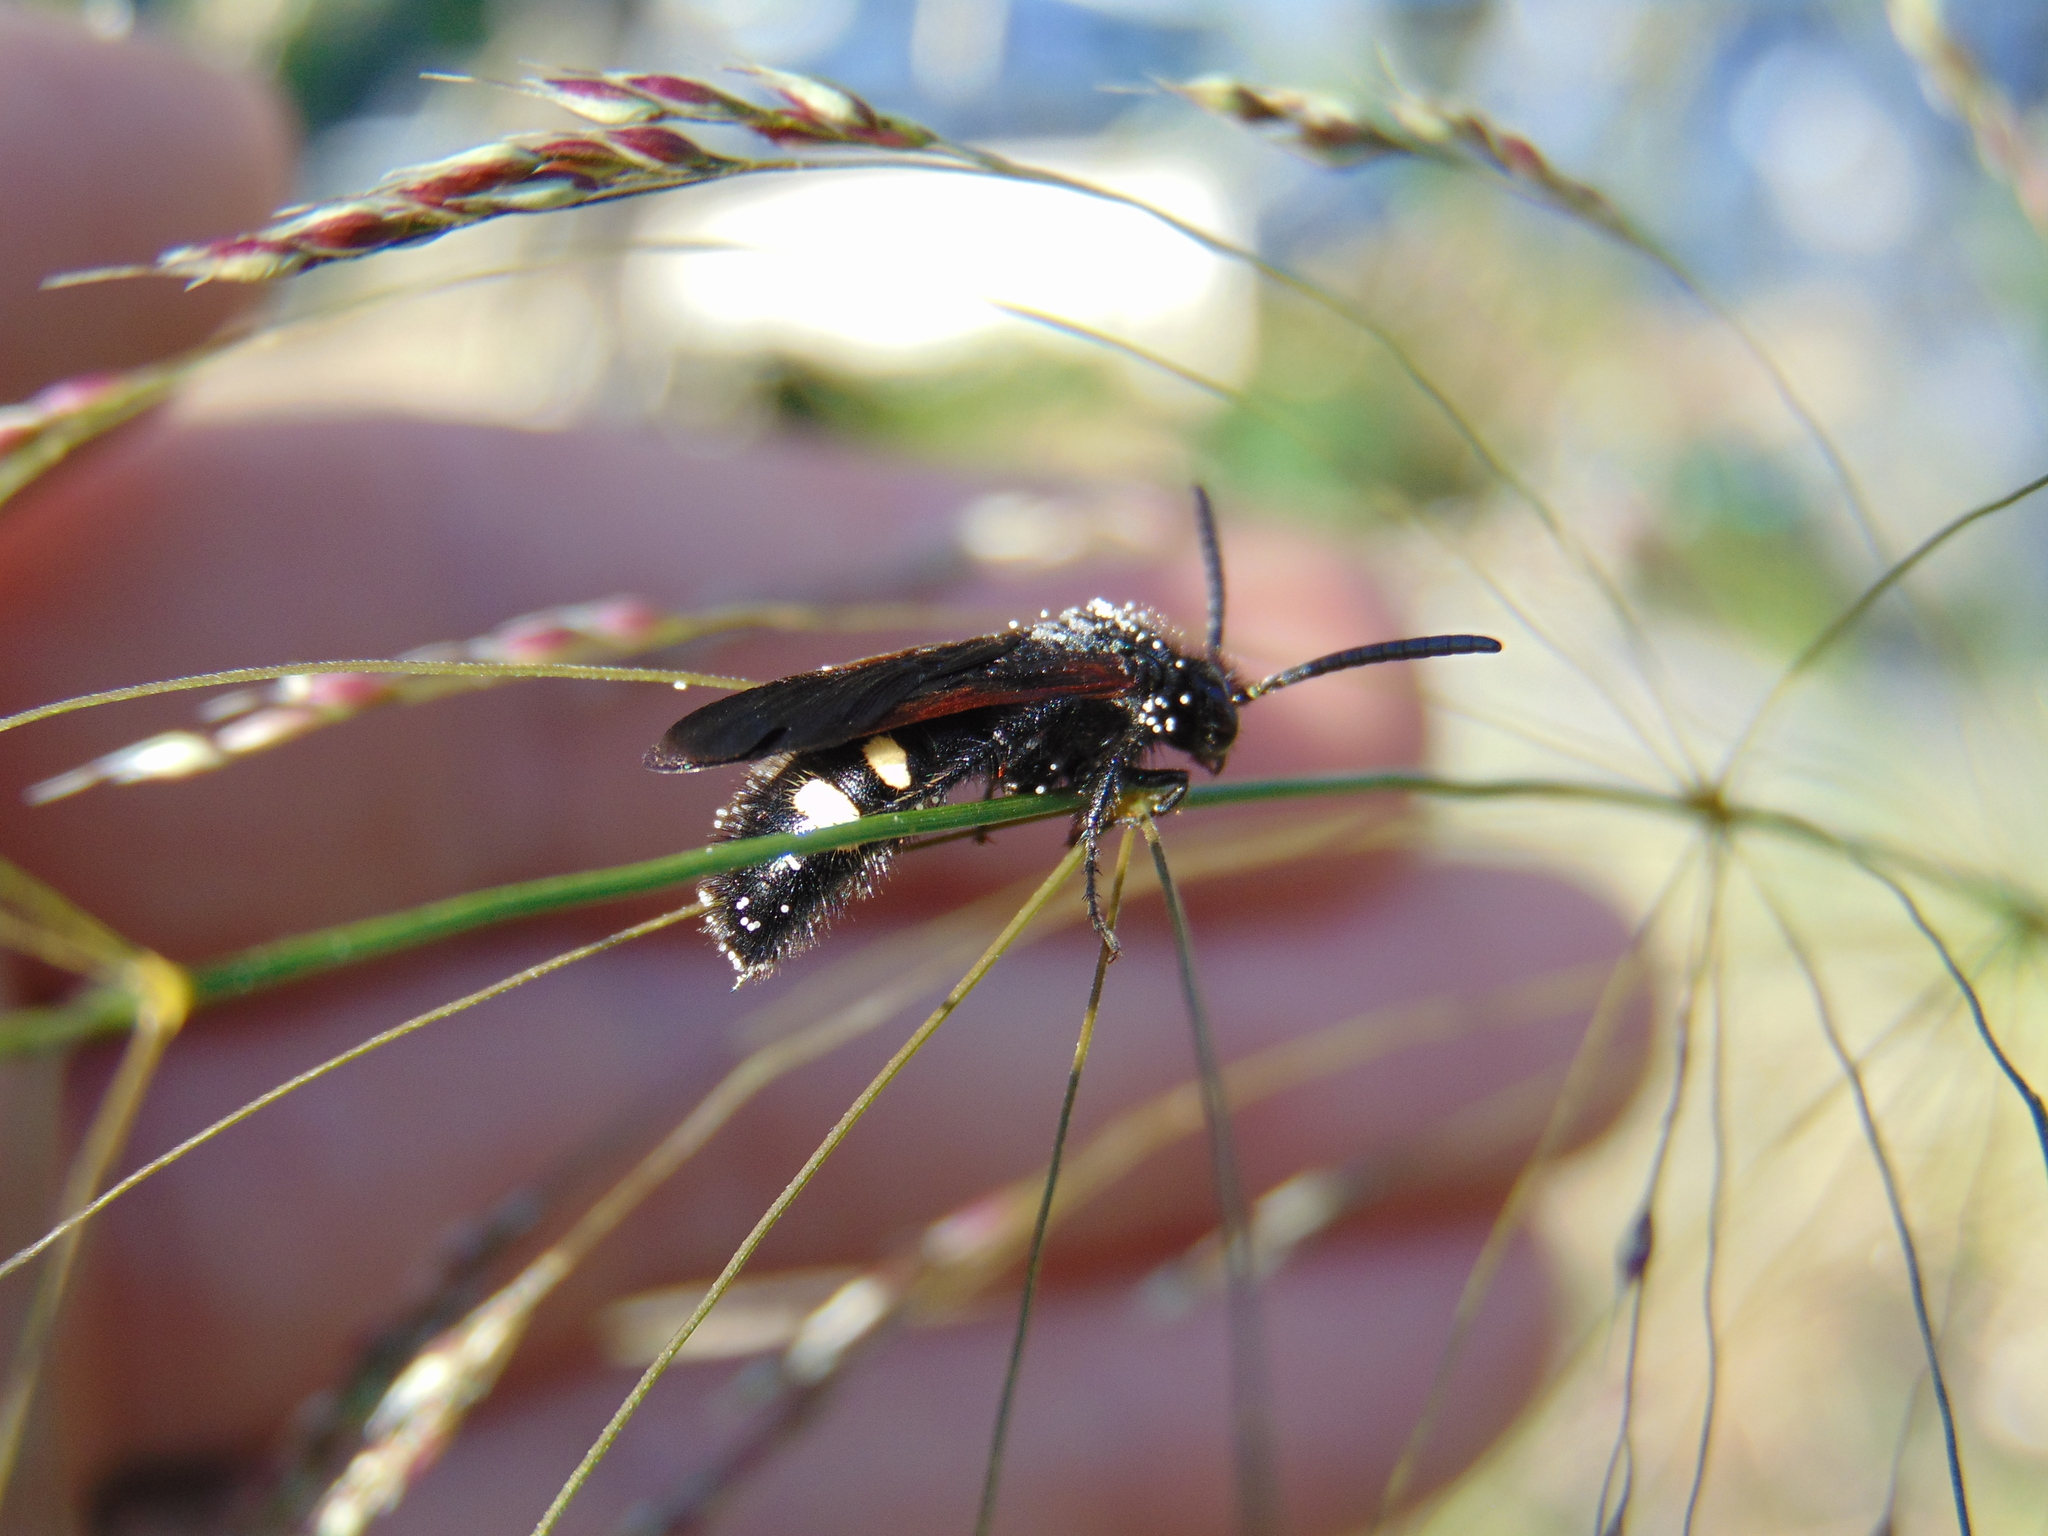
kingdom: Animalia
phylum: Arthropoda
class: Insecta
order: Hymenoptera
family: Vespidae
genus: Vespa
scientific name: Vespa sexmaculata
